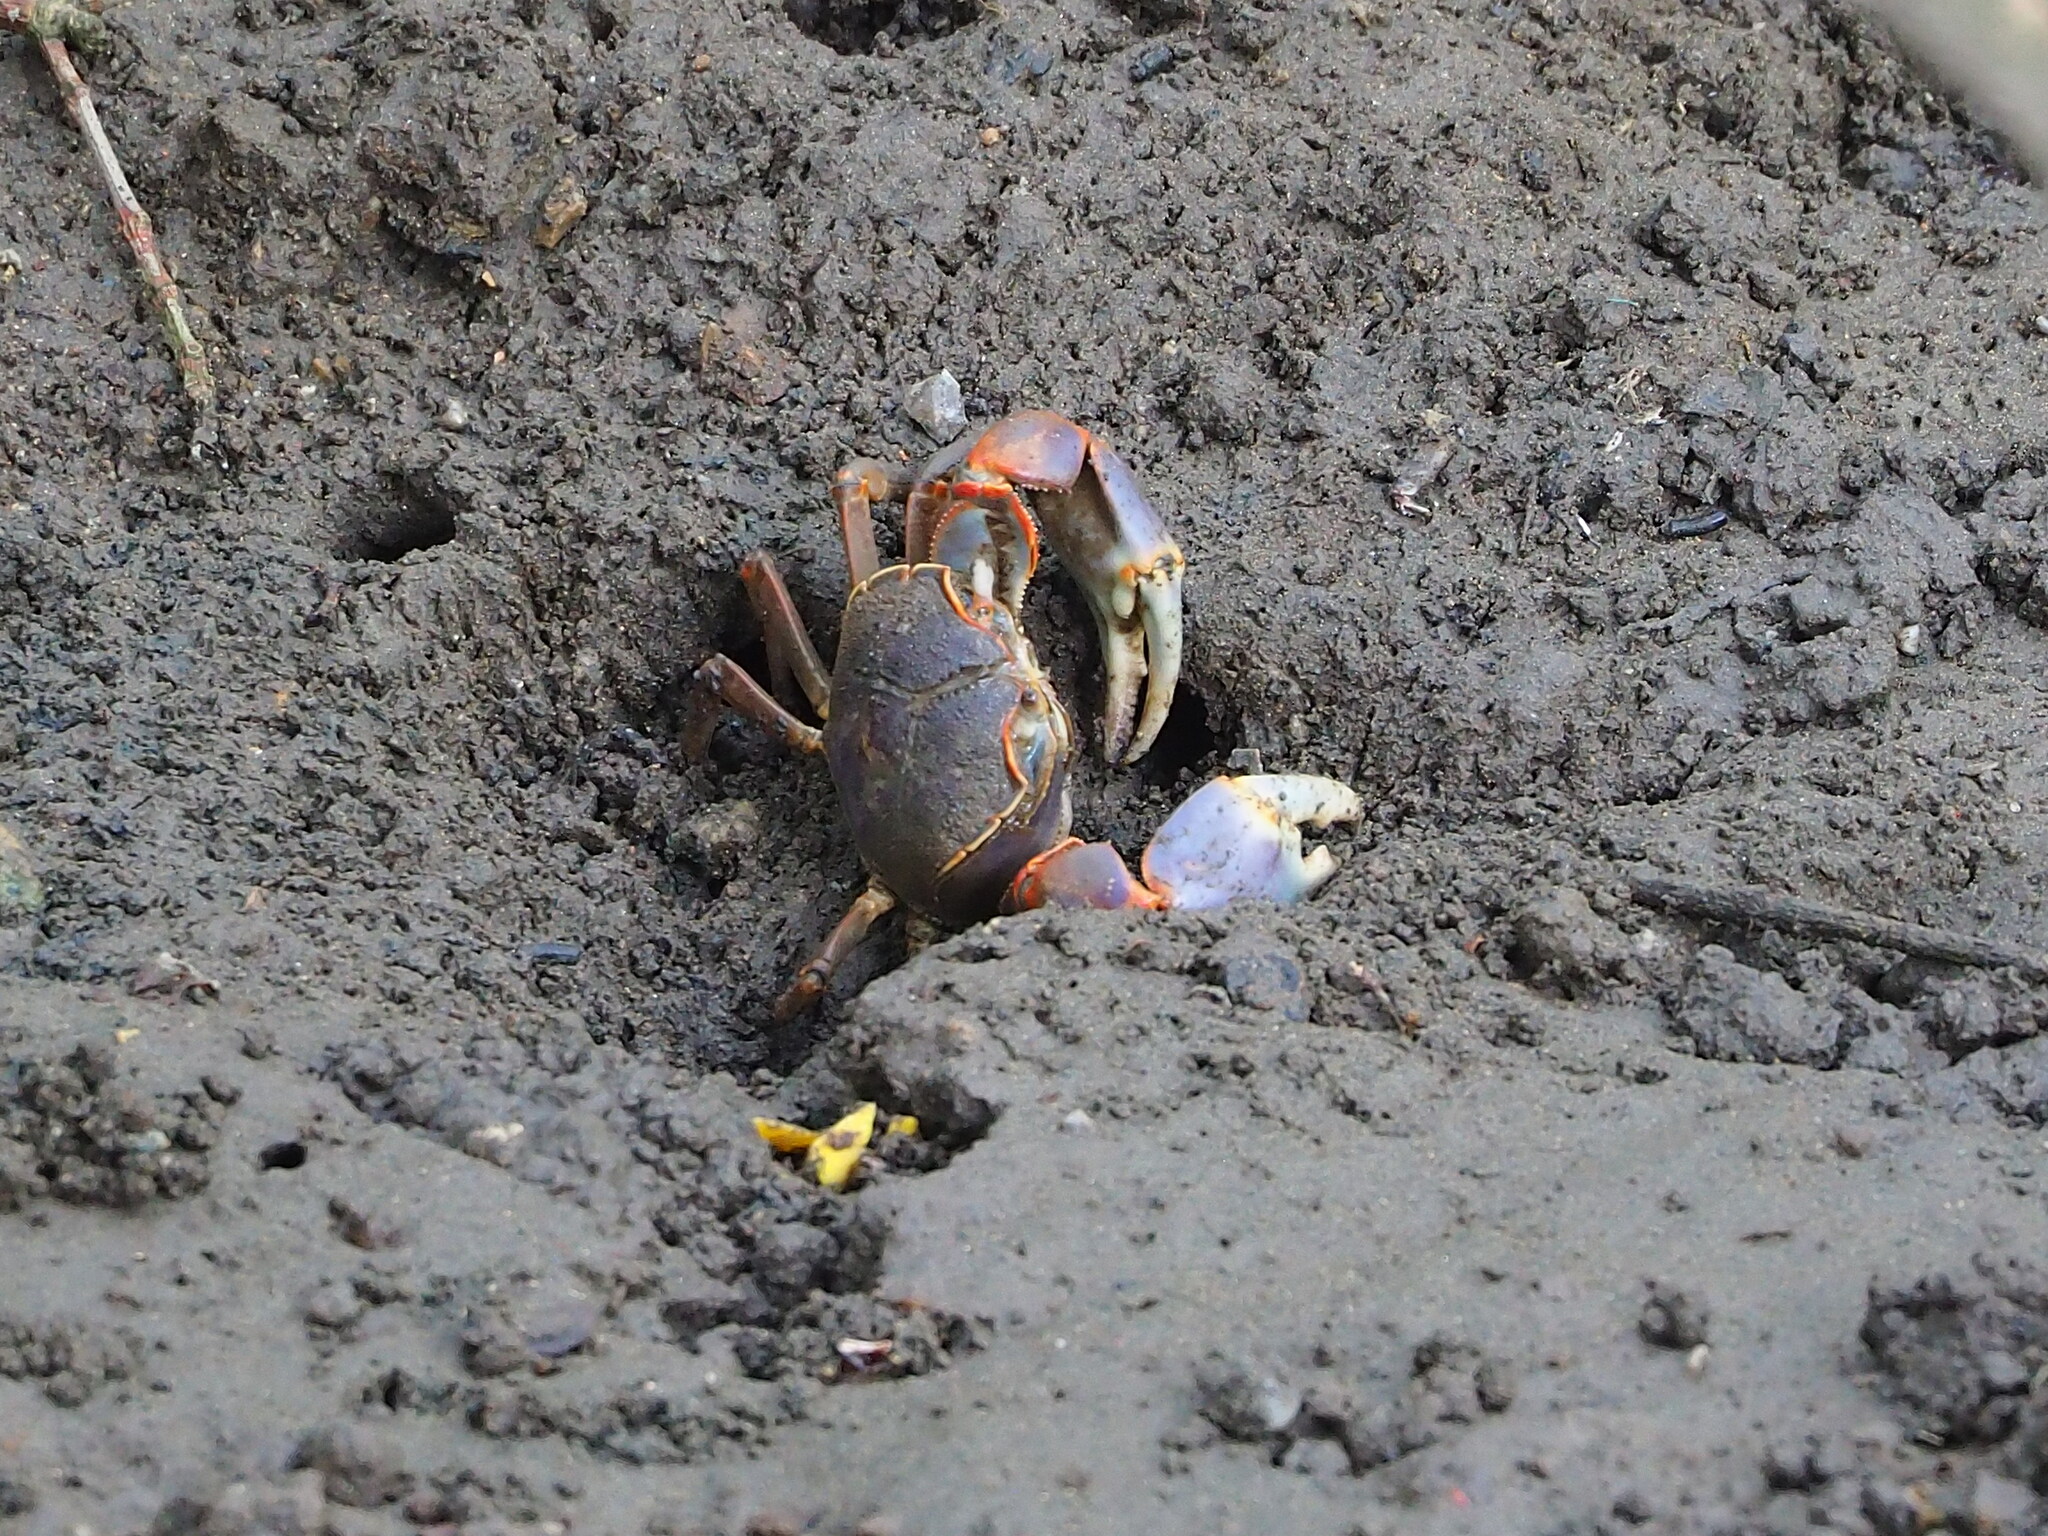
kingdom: Animalia
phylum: Arthropoda
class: Malacostraca
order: Decapoda
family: Varunidae
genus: Chasmagnathus
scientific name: Chasmagnathus convexus
